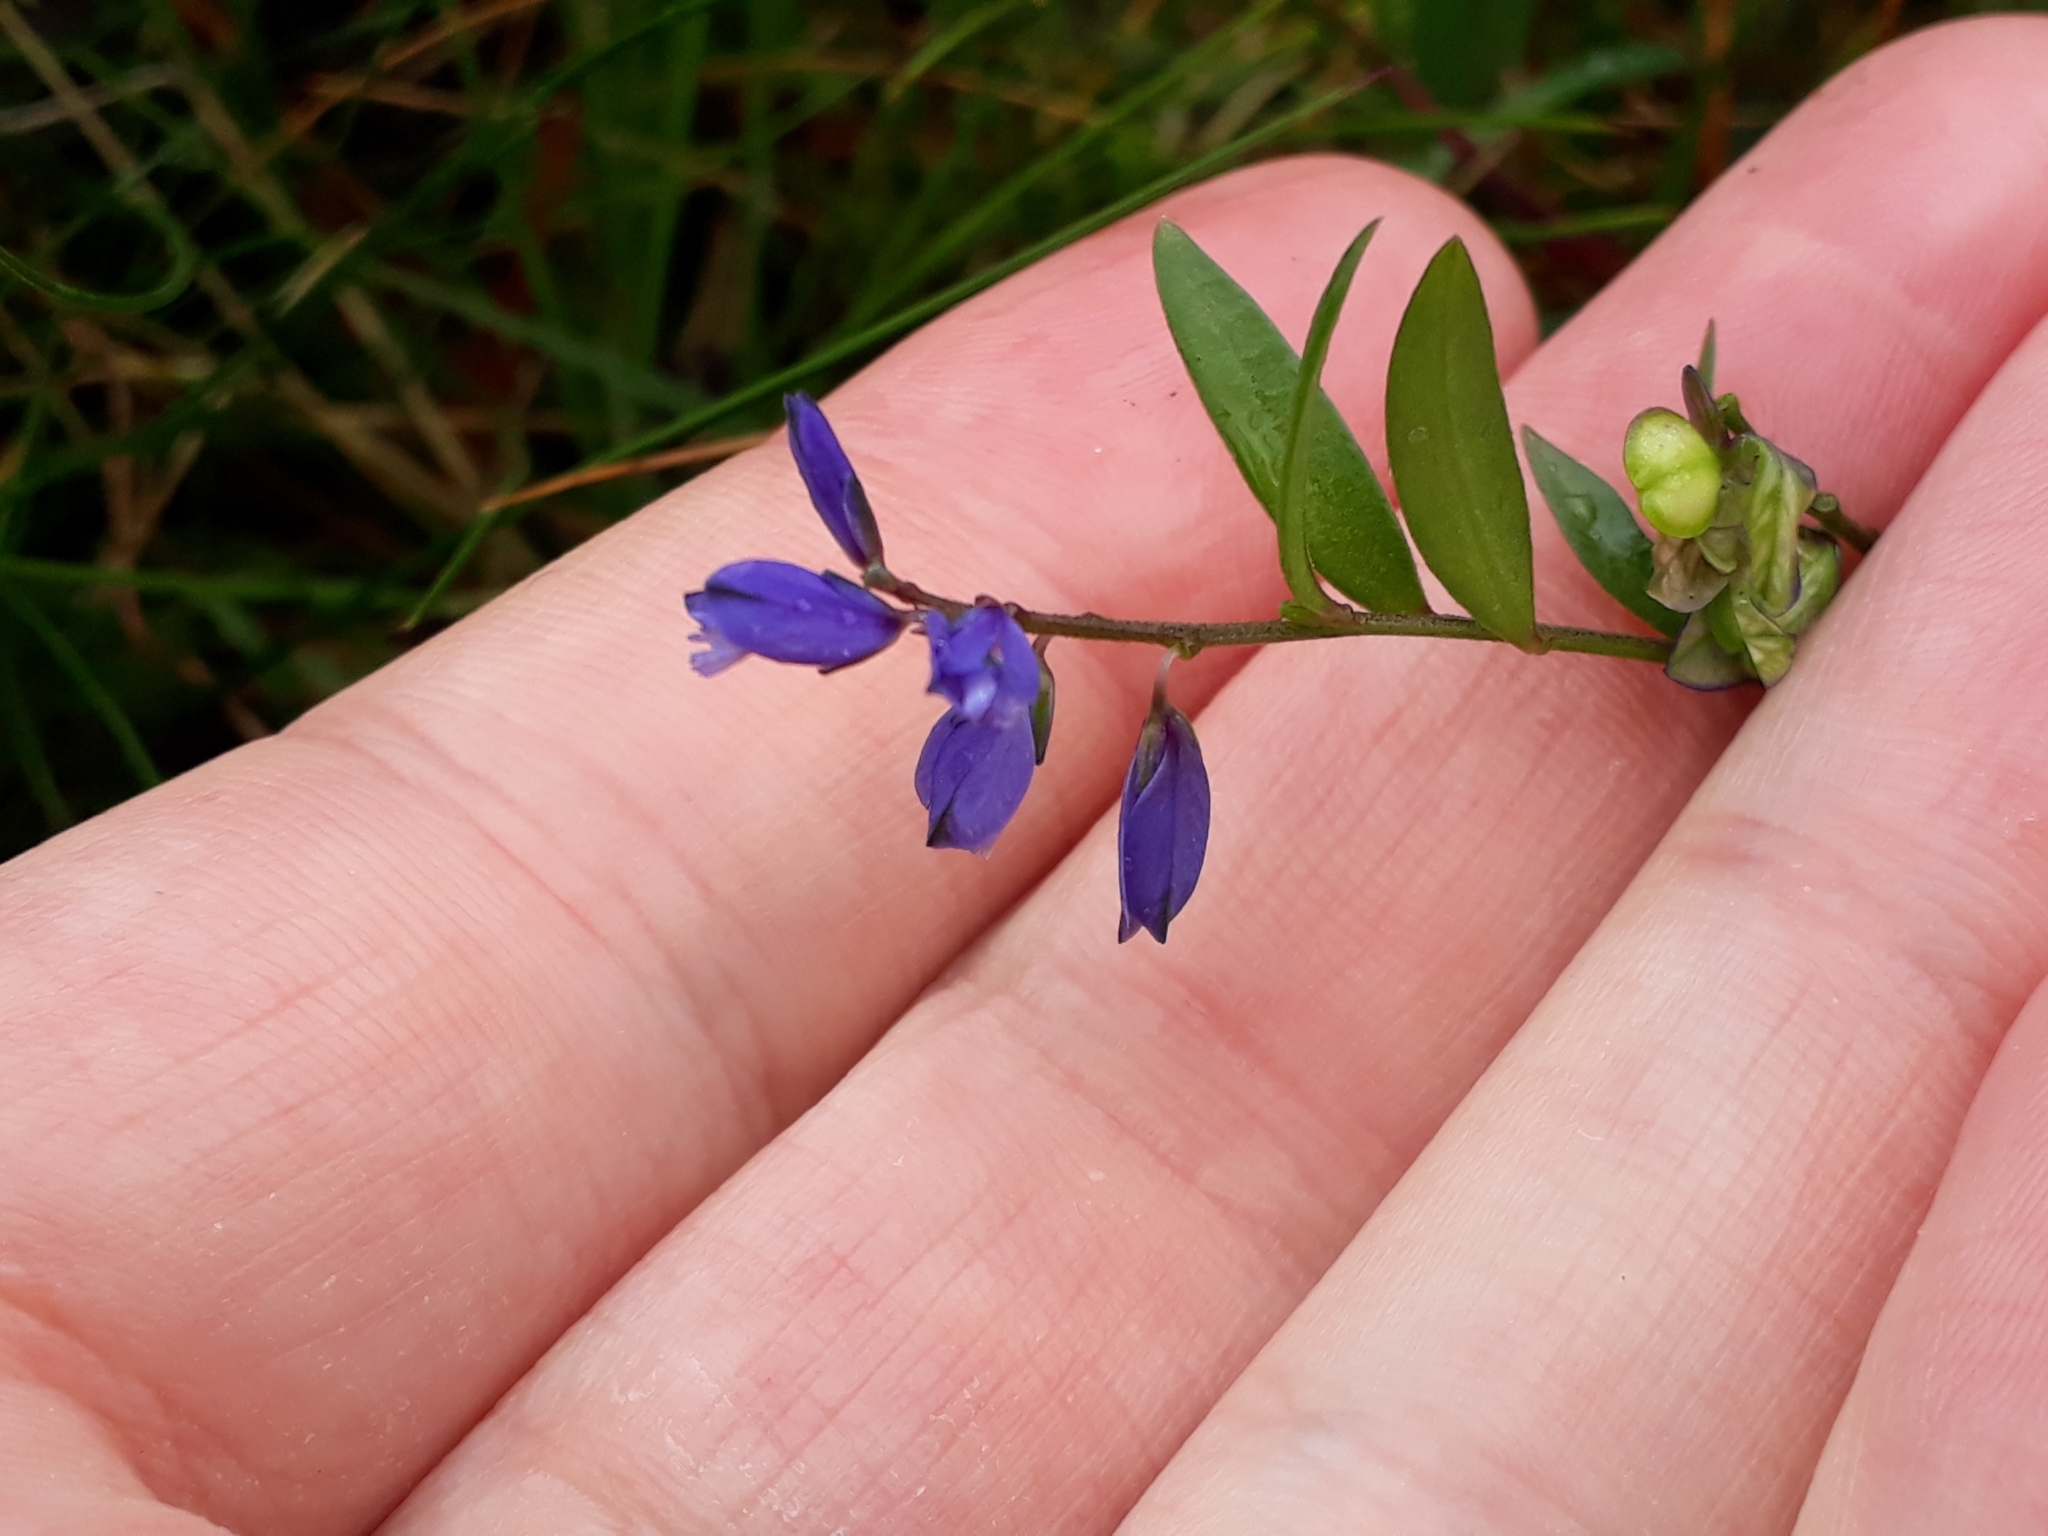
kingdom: Plantae
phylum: Tracheophyta
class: Magnoliopsida
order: Fabales
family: Polygalaceae
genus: Polygala
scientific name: Polygala serpyllifolia
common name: Heath milkwort
